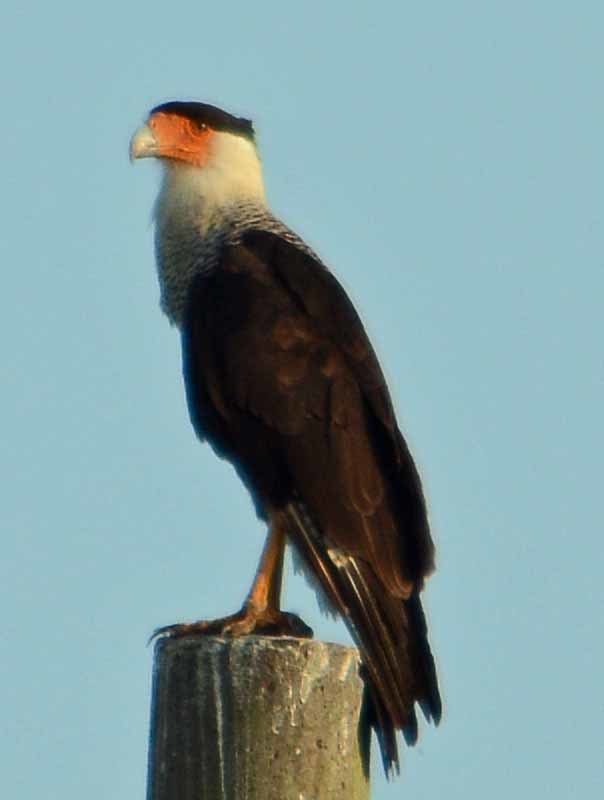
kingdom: Animalia
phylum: Chordata
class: Aves
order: Falconiformes
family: Falconidae
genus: Caracara
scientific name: Caracara plancus
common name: Southern caracara
